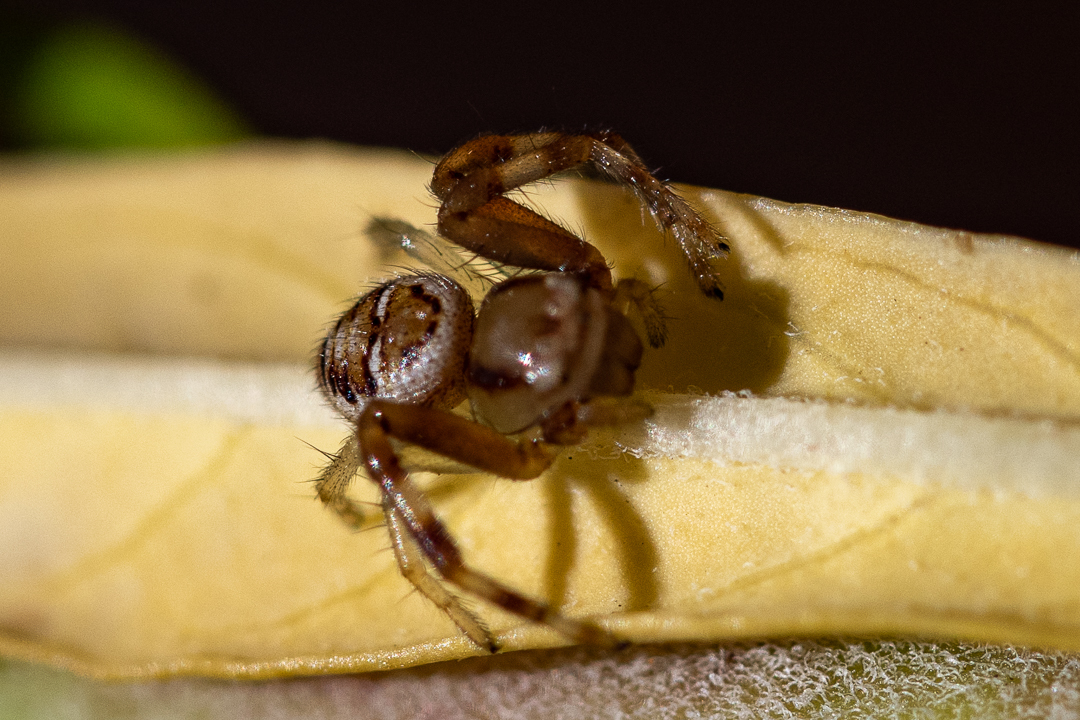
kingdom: Animalia
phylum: Arthropoda
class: Arachnida
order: Araneae
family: Thomisidae
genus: Synema
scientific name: Synema imitatrix
